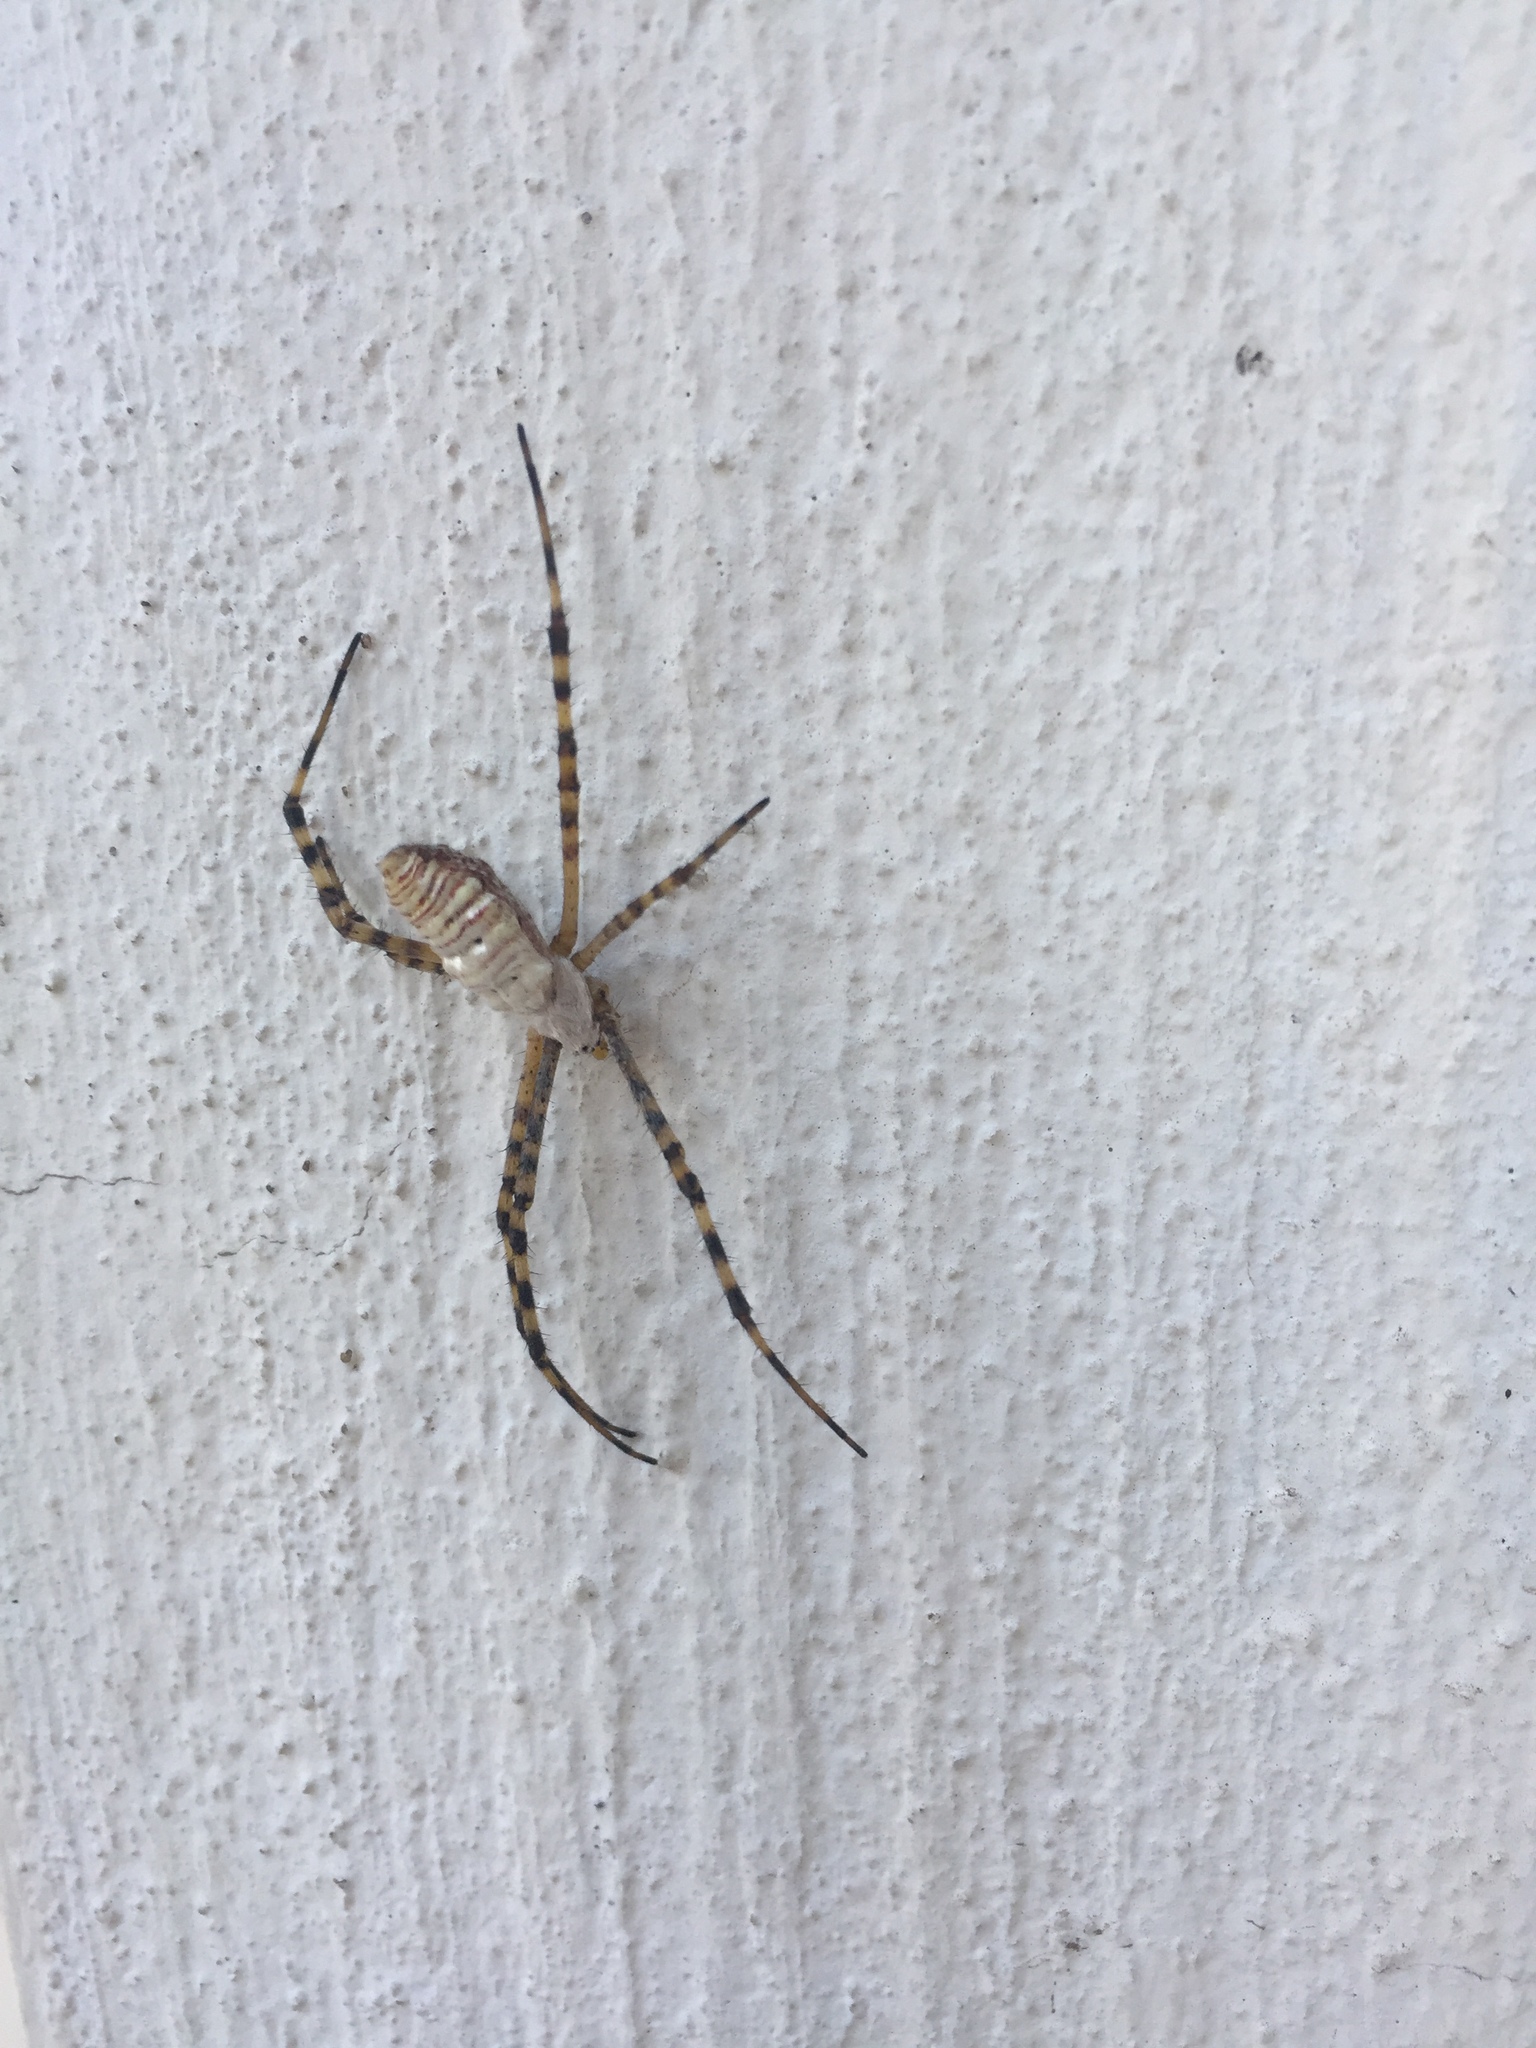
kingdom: Animalia
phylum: Arthropoda
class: Arachnida
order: Araneae
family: Araneidae
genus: Argiope
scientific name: Argiope trifasciata
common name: Banded garden spider
